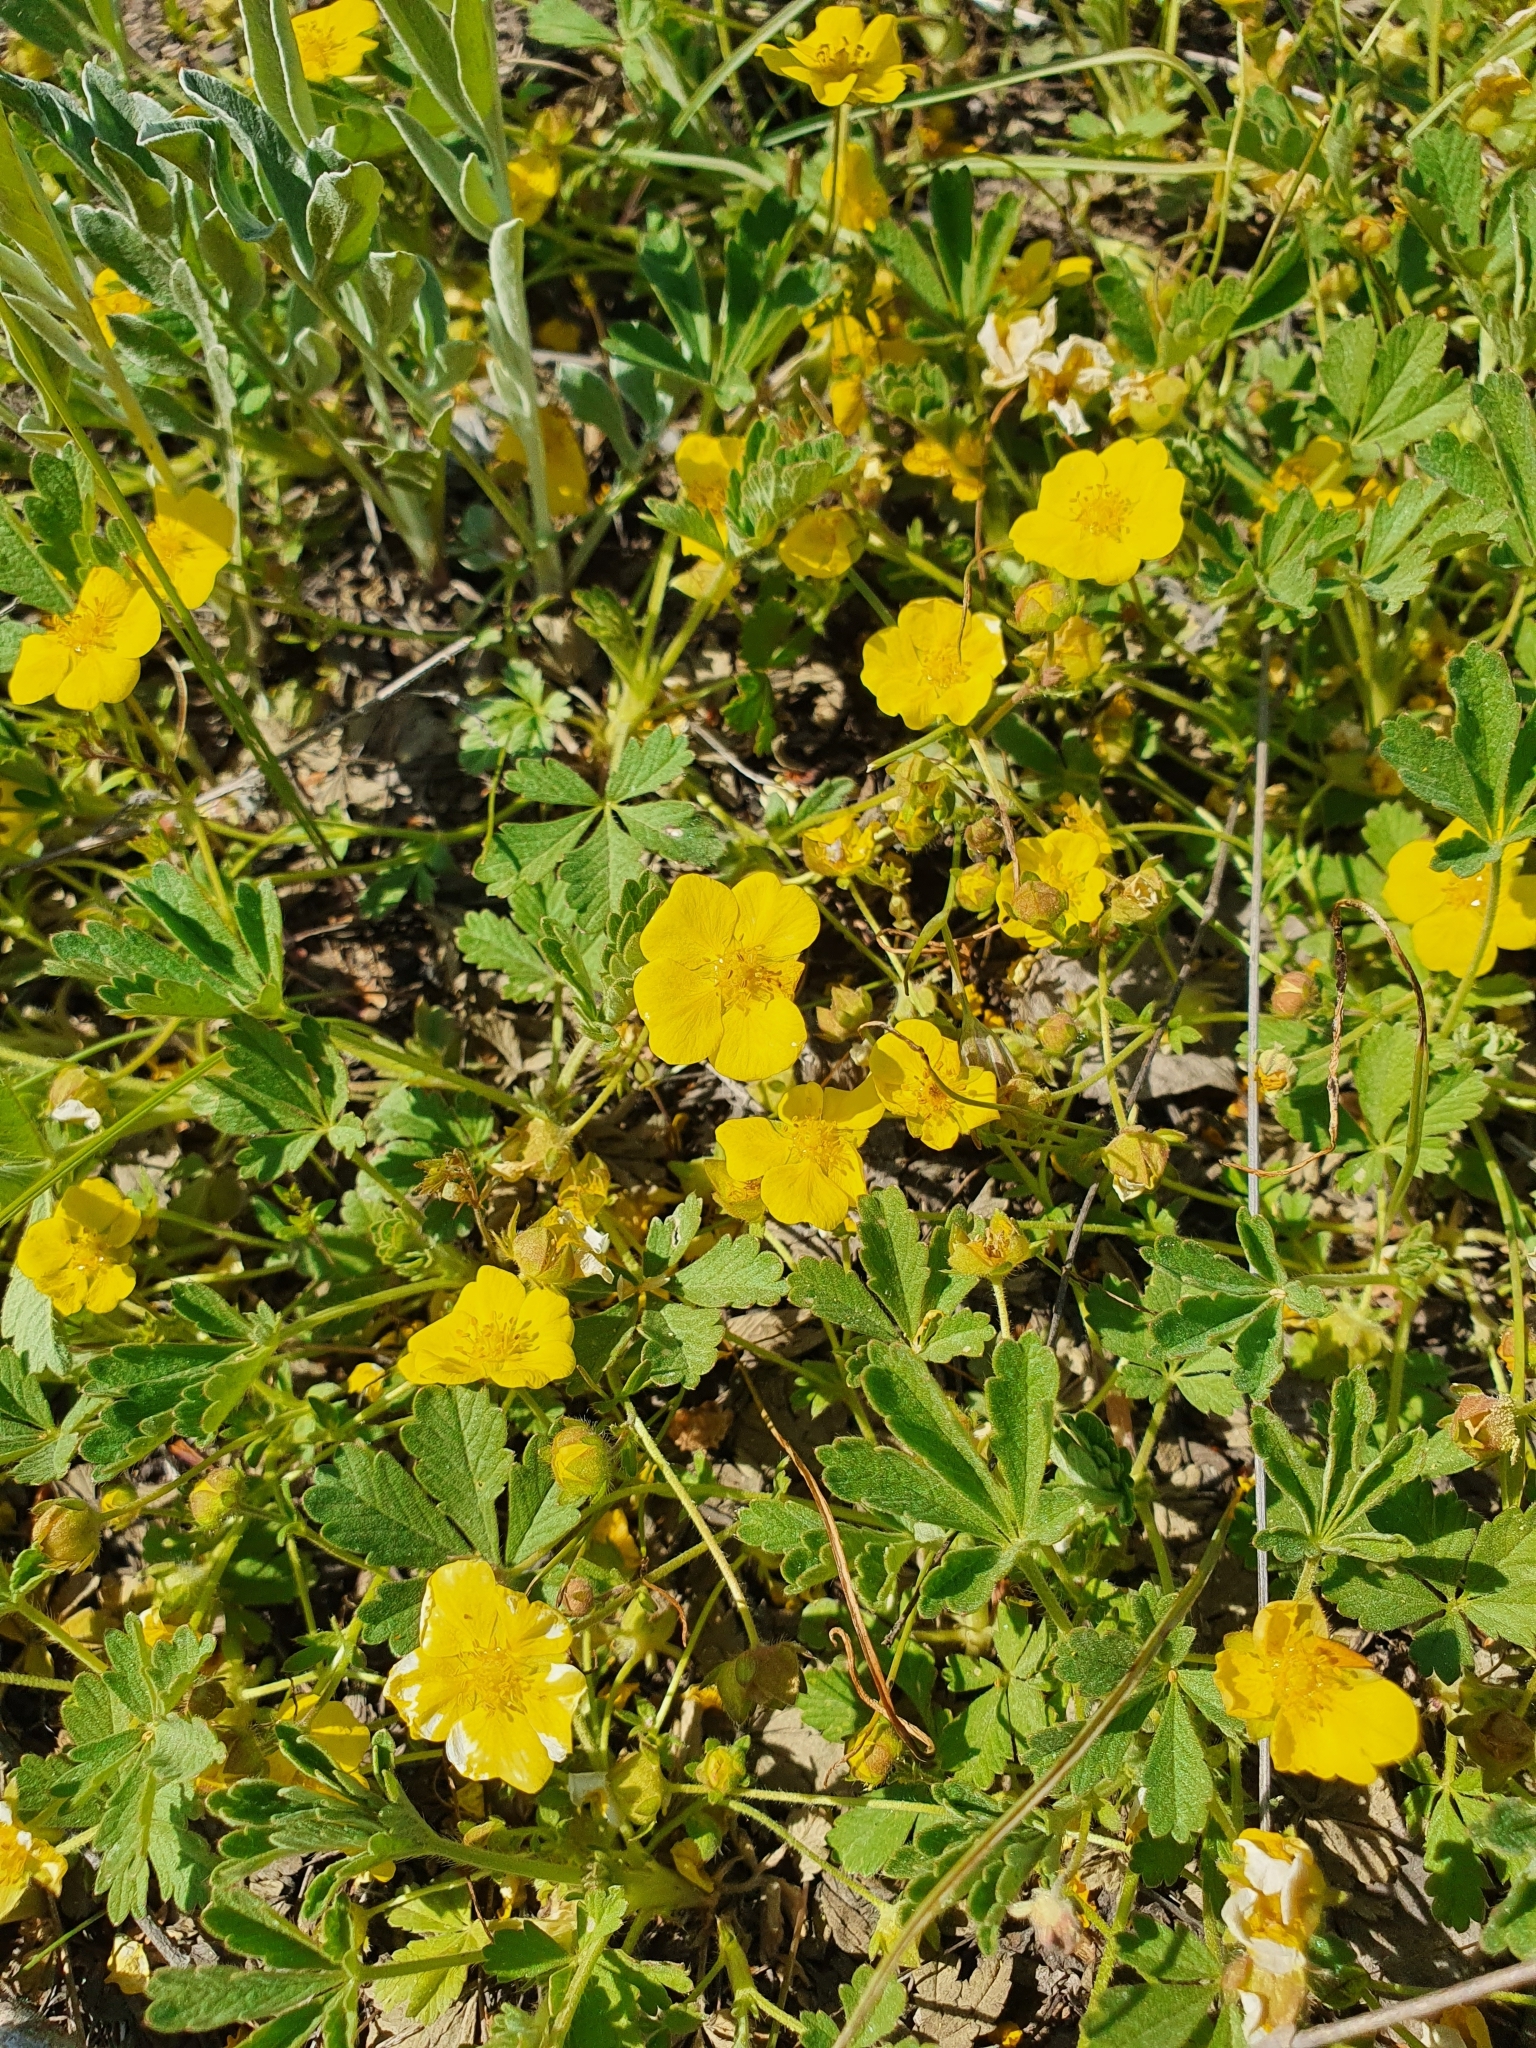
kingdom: Plantae
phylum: Tracheophyta
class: Magnoliopsida
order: Rosales
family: Rosaceae
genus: Potentilla
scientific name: Potentilla incana
